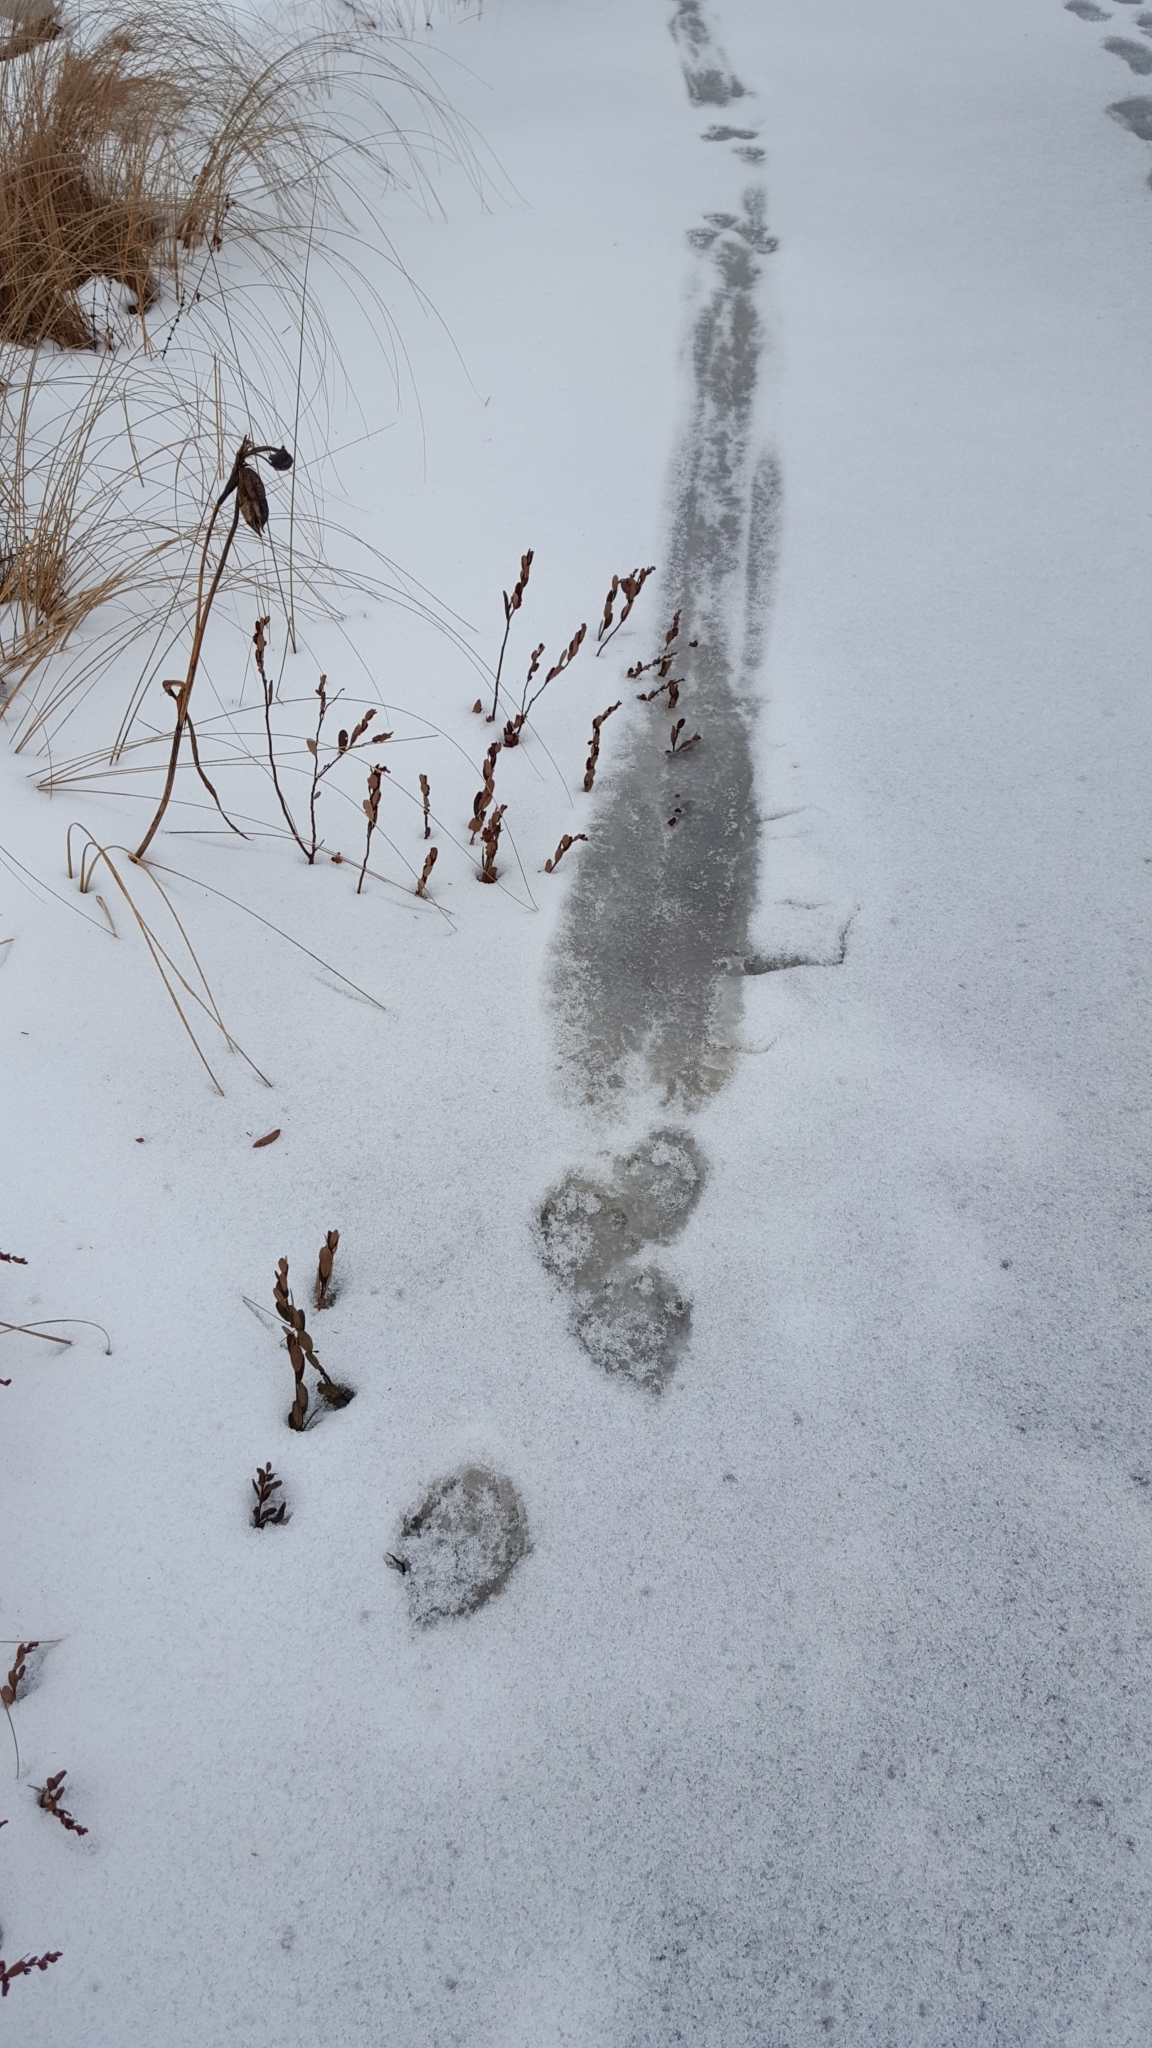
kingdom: Animalia
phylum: Chordata
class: Mammalia
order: Carnivora
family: Mustelidae
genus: Lontra
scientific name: Lontra canadensis
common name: North american river otter
